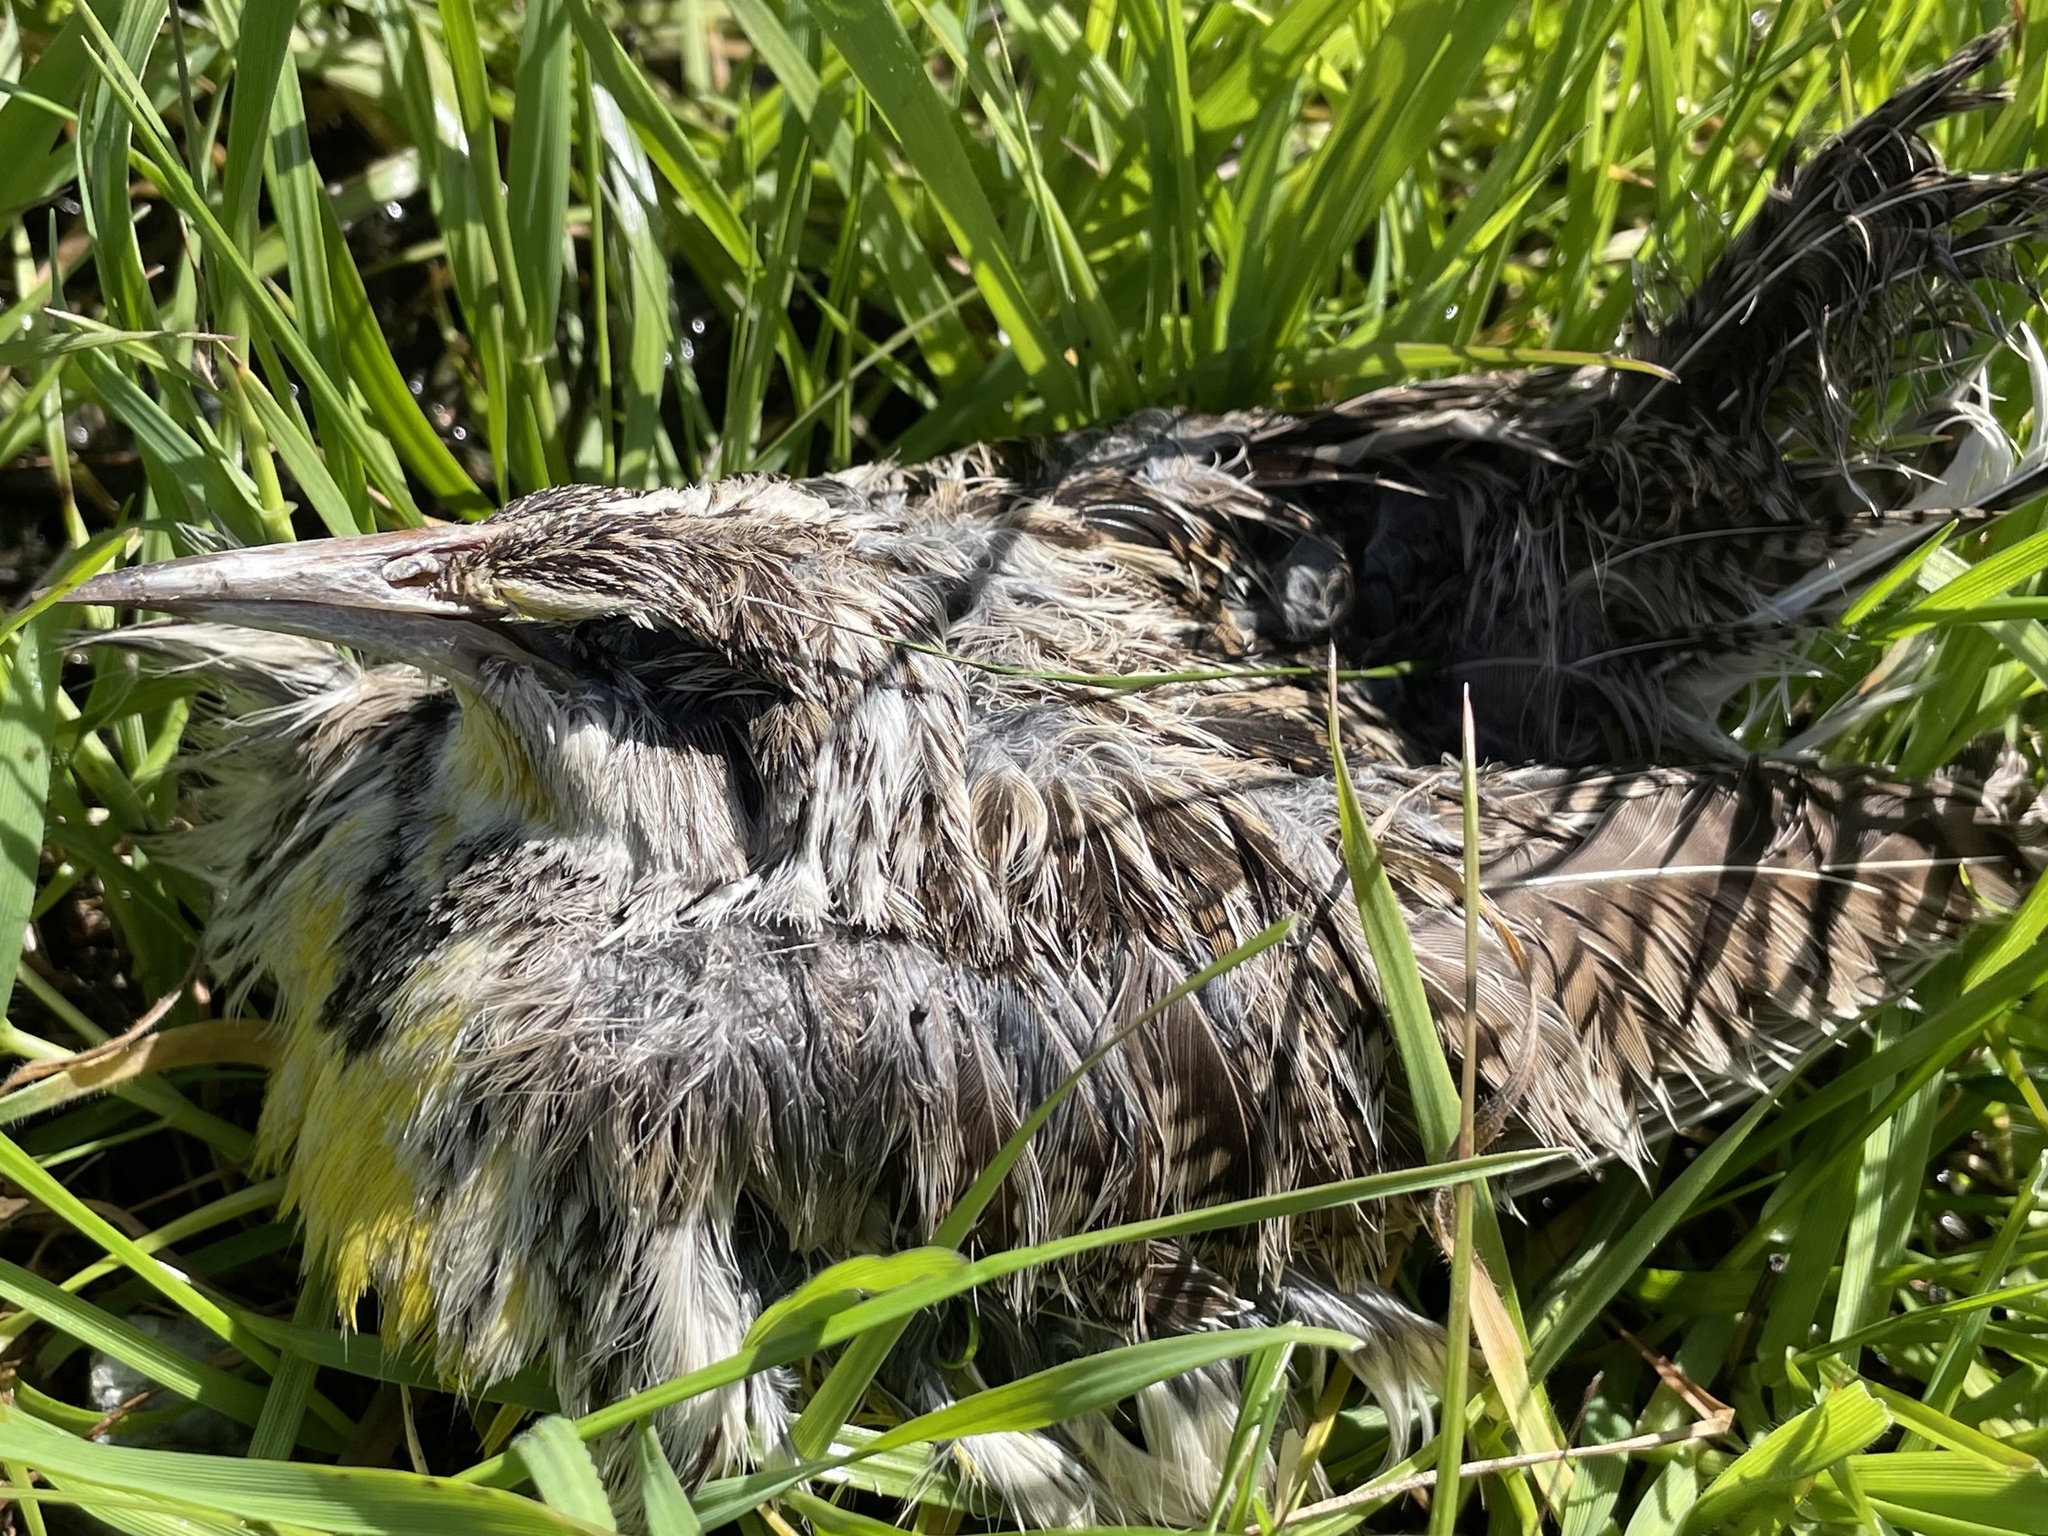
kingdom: Animalia
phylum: Chordata
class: Aves
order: Passeriformes
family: Icteridae
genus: Sturnella
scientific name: Sturnella neglecta
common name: Western meadowlark
